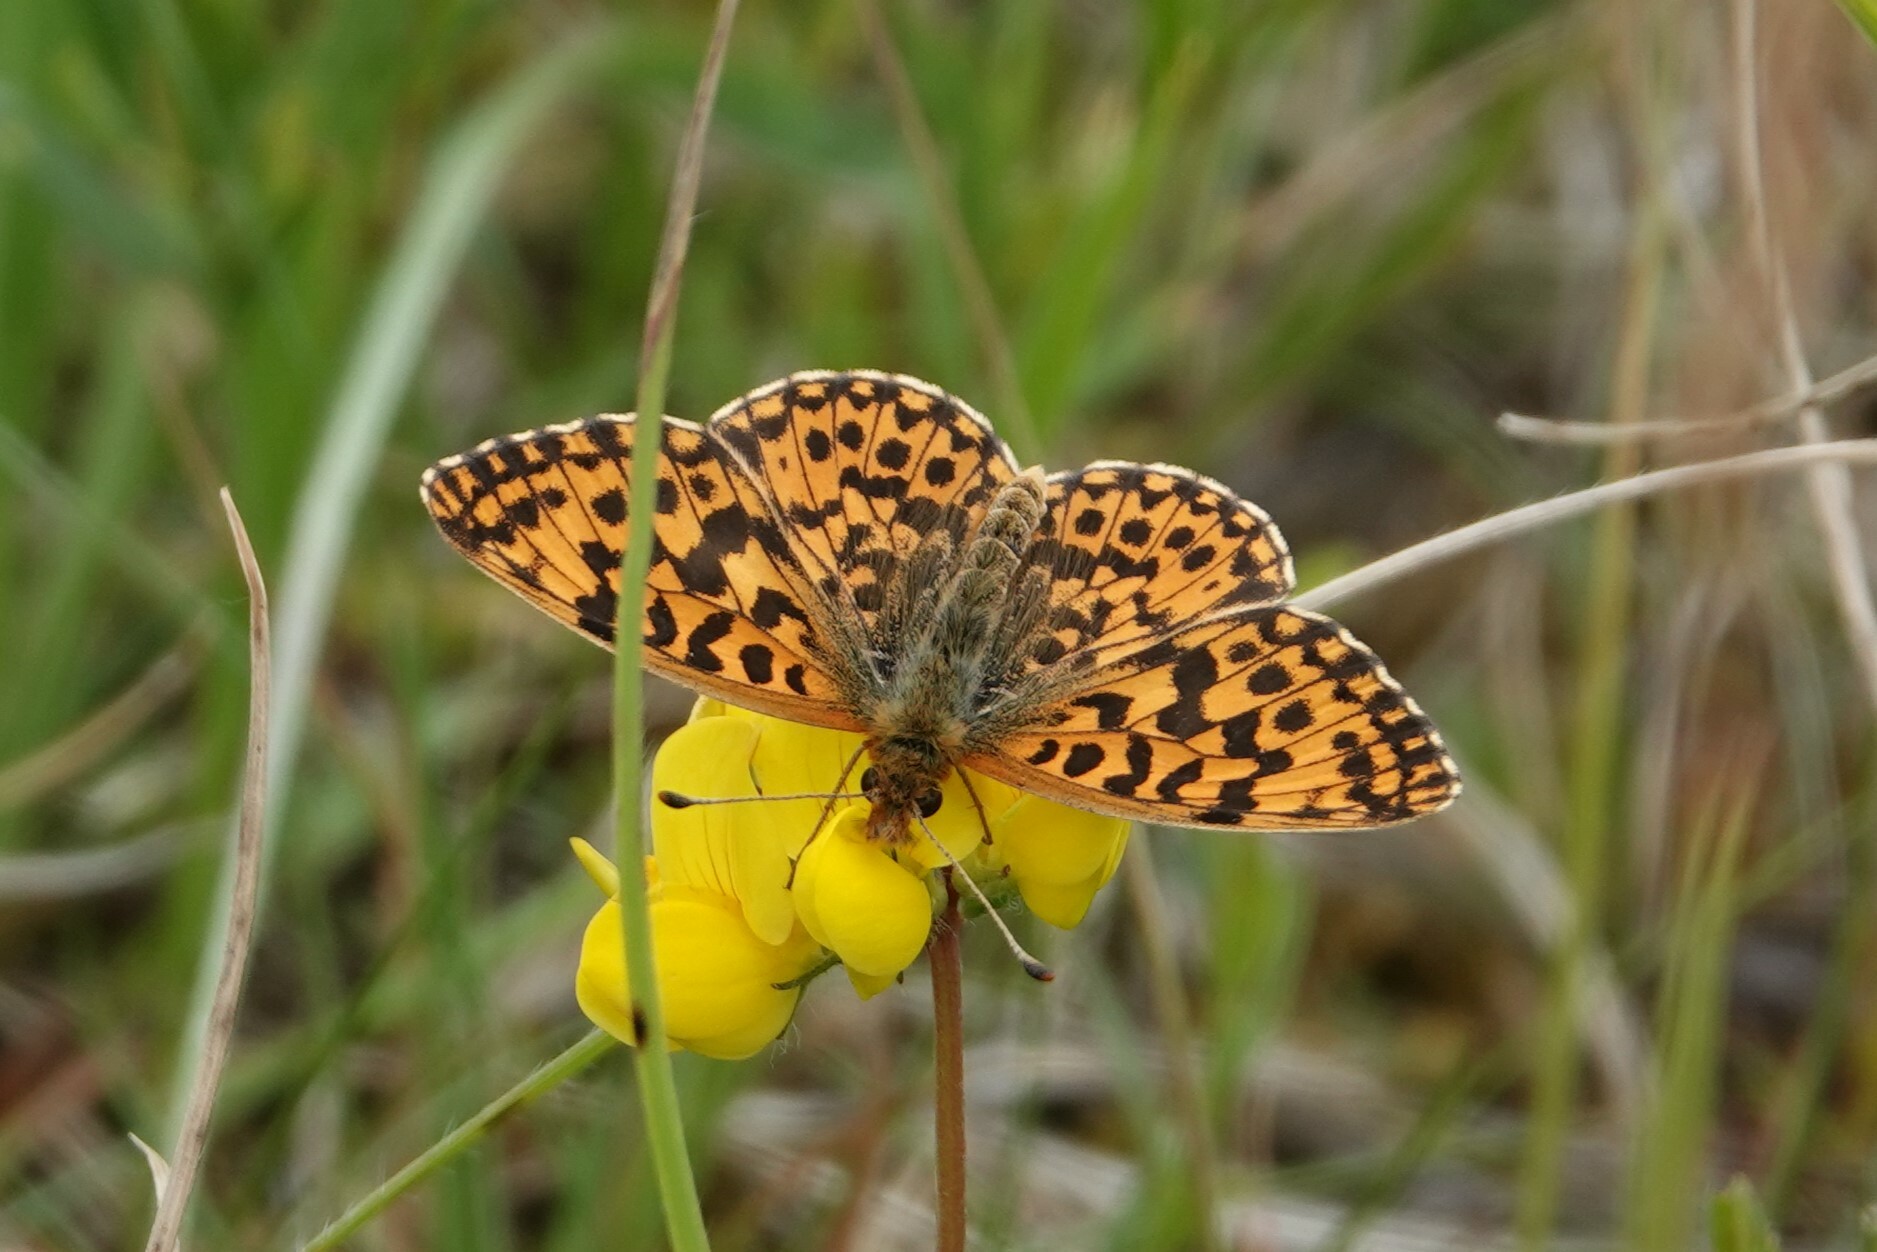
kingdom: Animalia
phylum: Arthropoda
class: Insecta
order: Lepidoptera
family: Nymphalidae
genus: Boloria
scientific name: Boloria dia
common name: Weaver's fritillary
